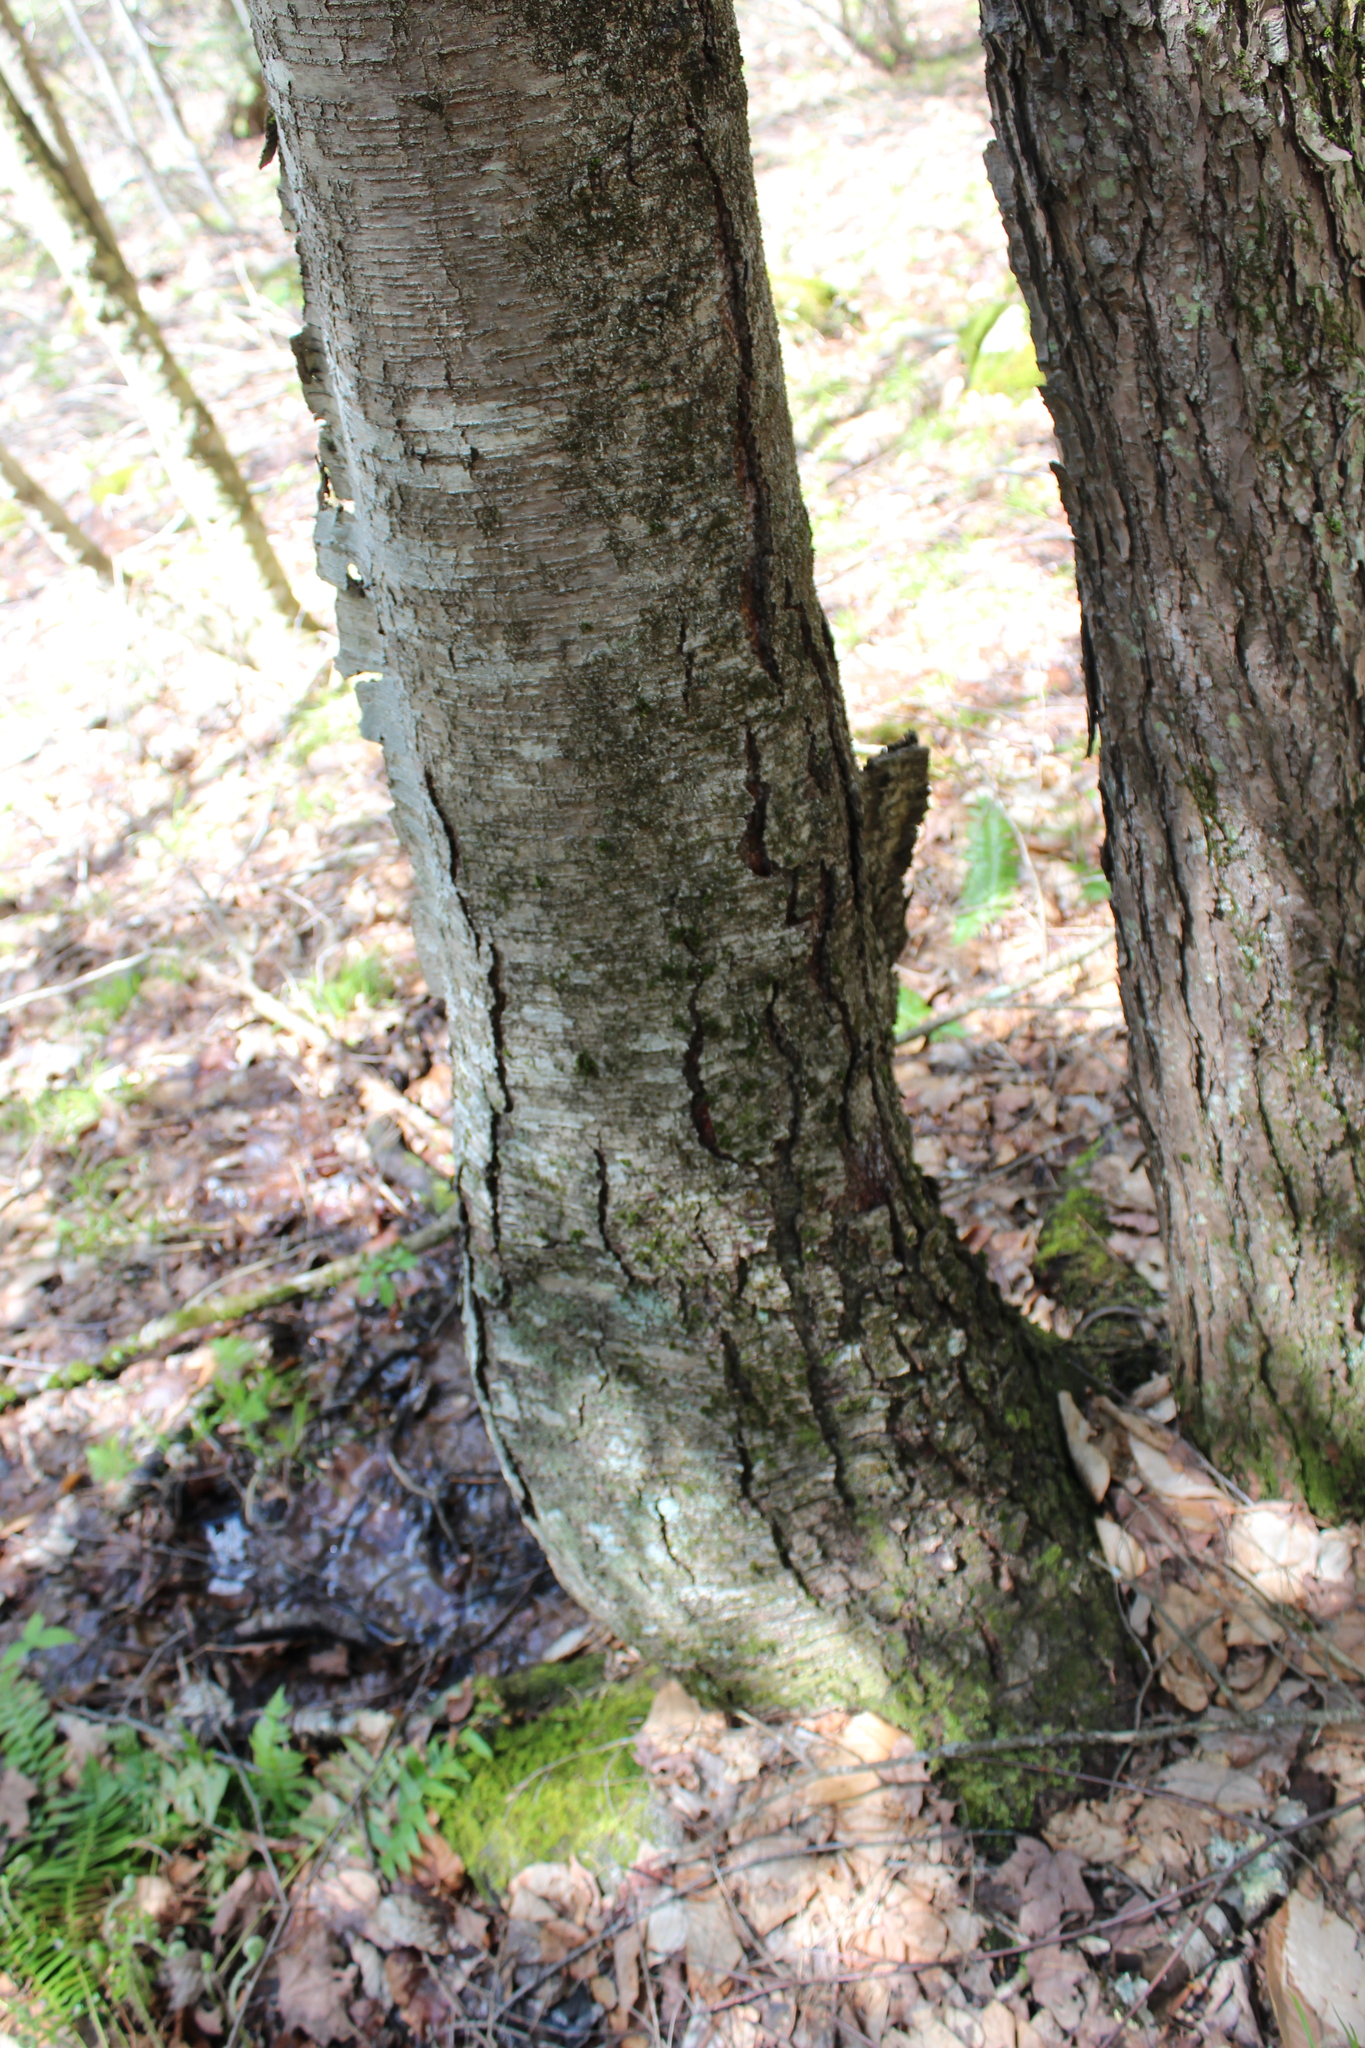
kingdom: Plantae
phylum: Tracheophyta
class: Magnoliopsida
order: Fagales
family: Betulaceae
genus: Betula
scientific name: Betula lenta
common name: Black birch
